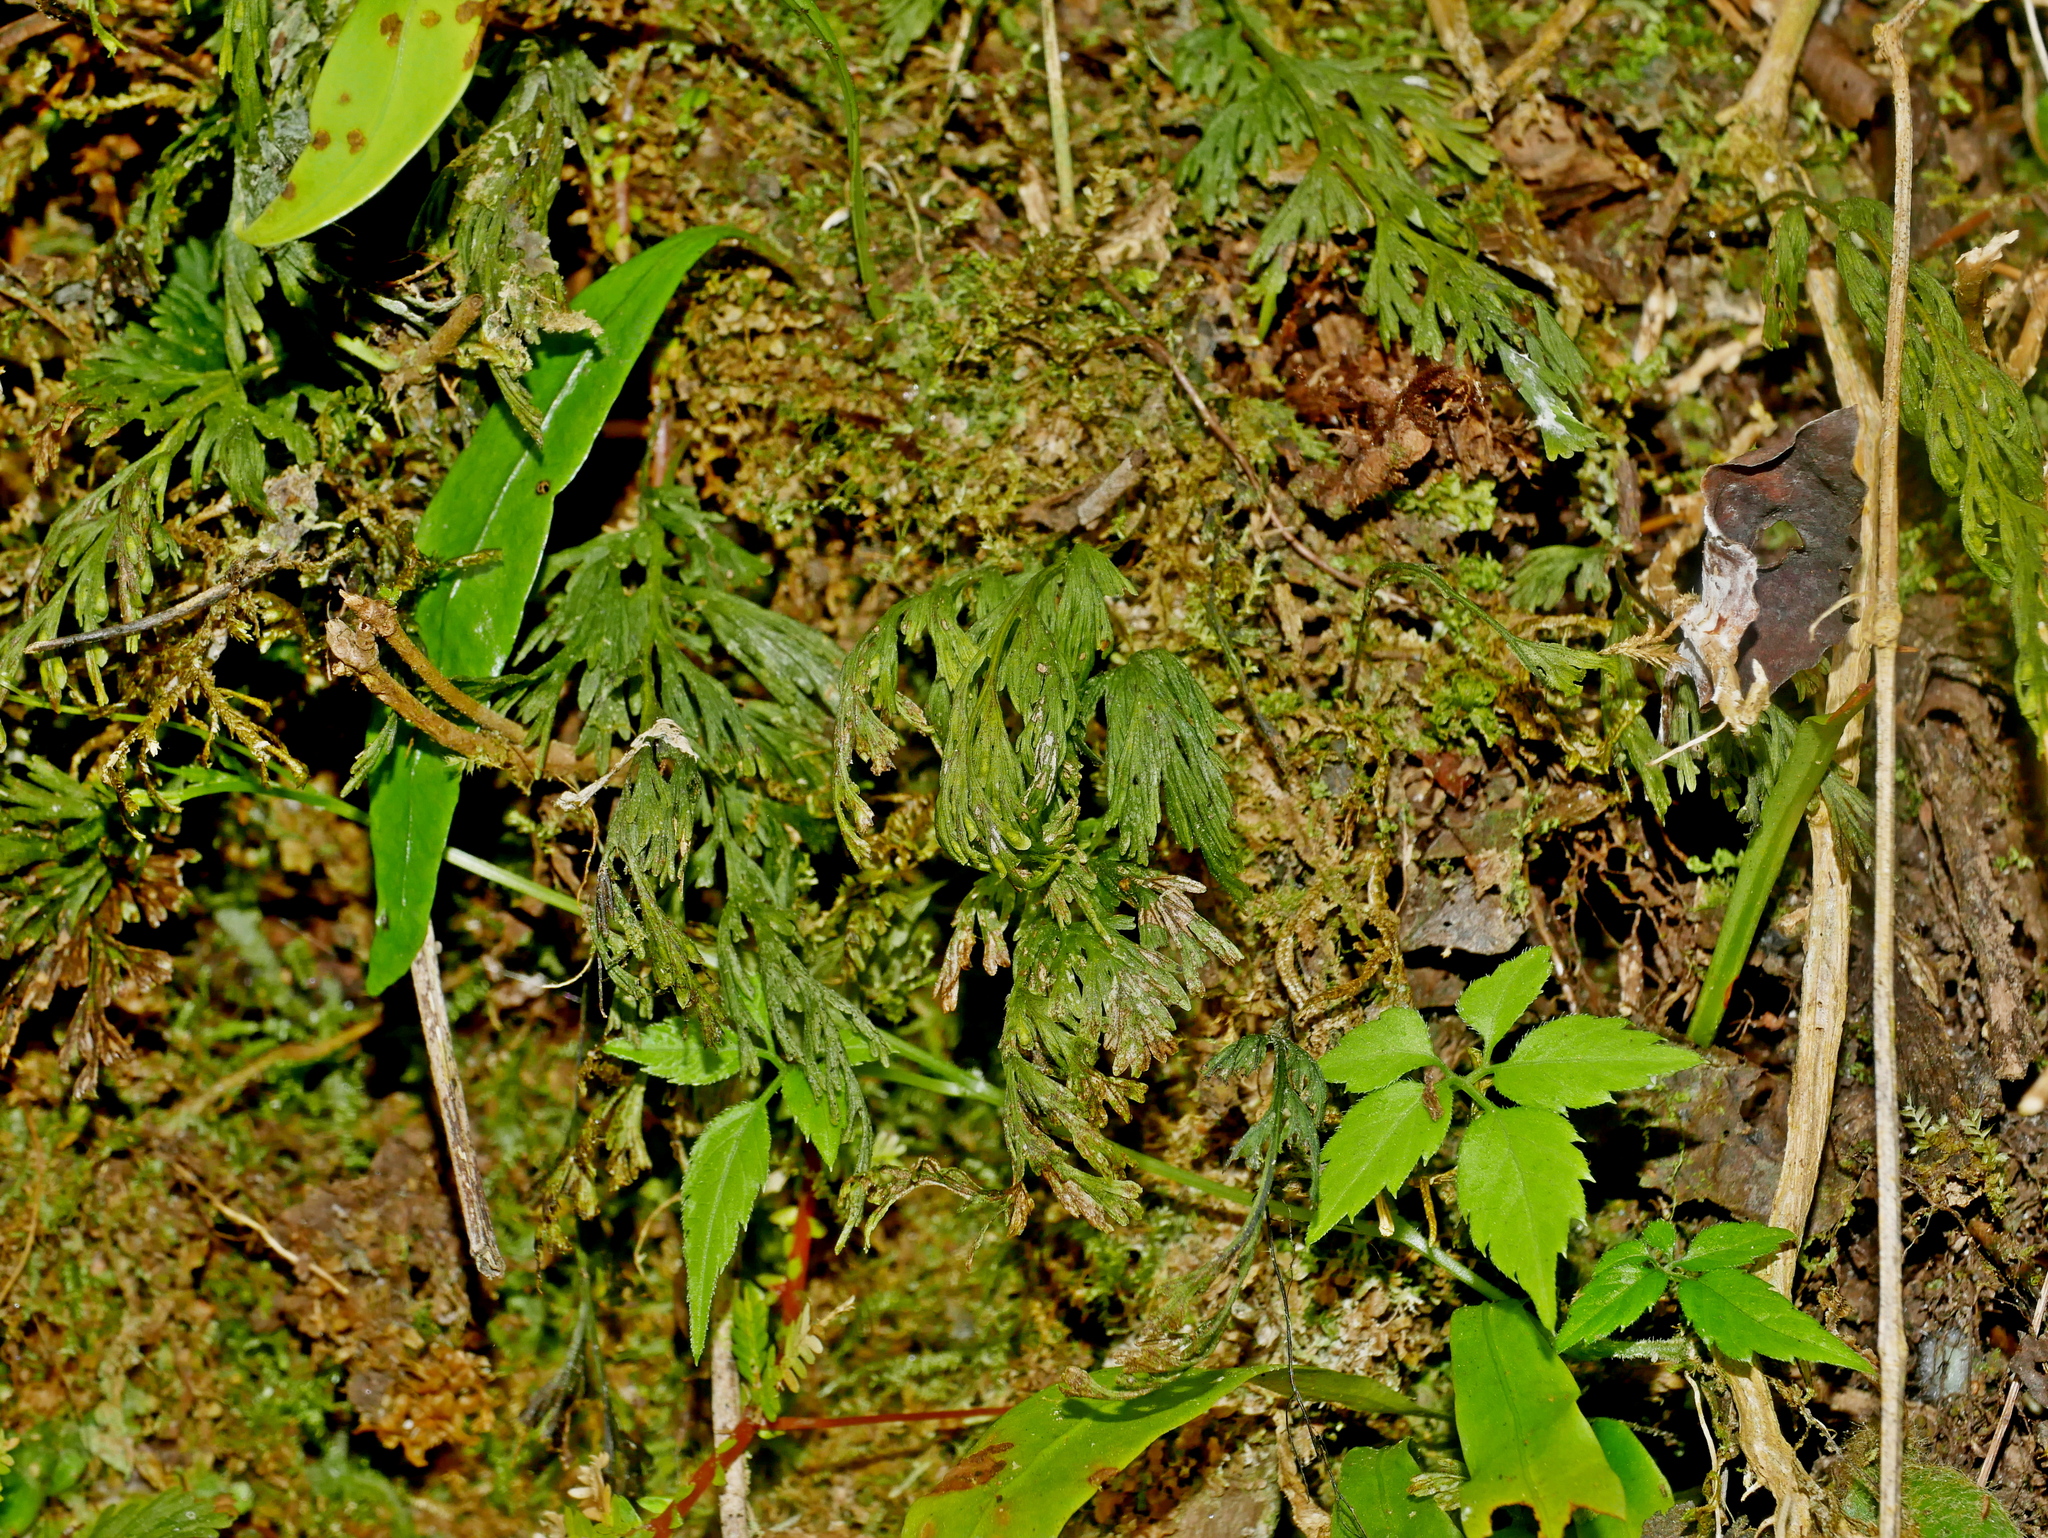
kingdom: Plantae
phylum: Tracheophyta
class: Polypodiopsida
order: Hymenophyllales
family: Hymenophyllaceae
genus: Crepidomanes
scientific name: Crepidomanes latealatum
